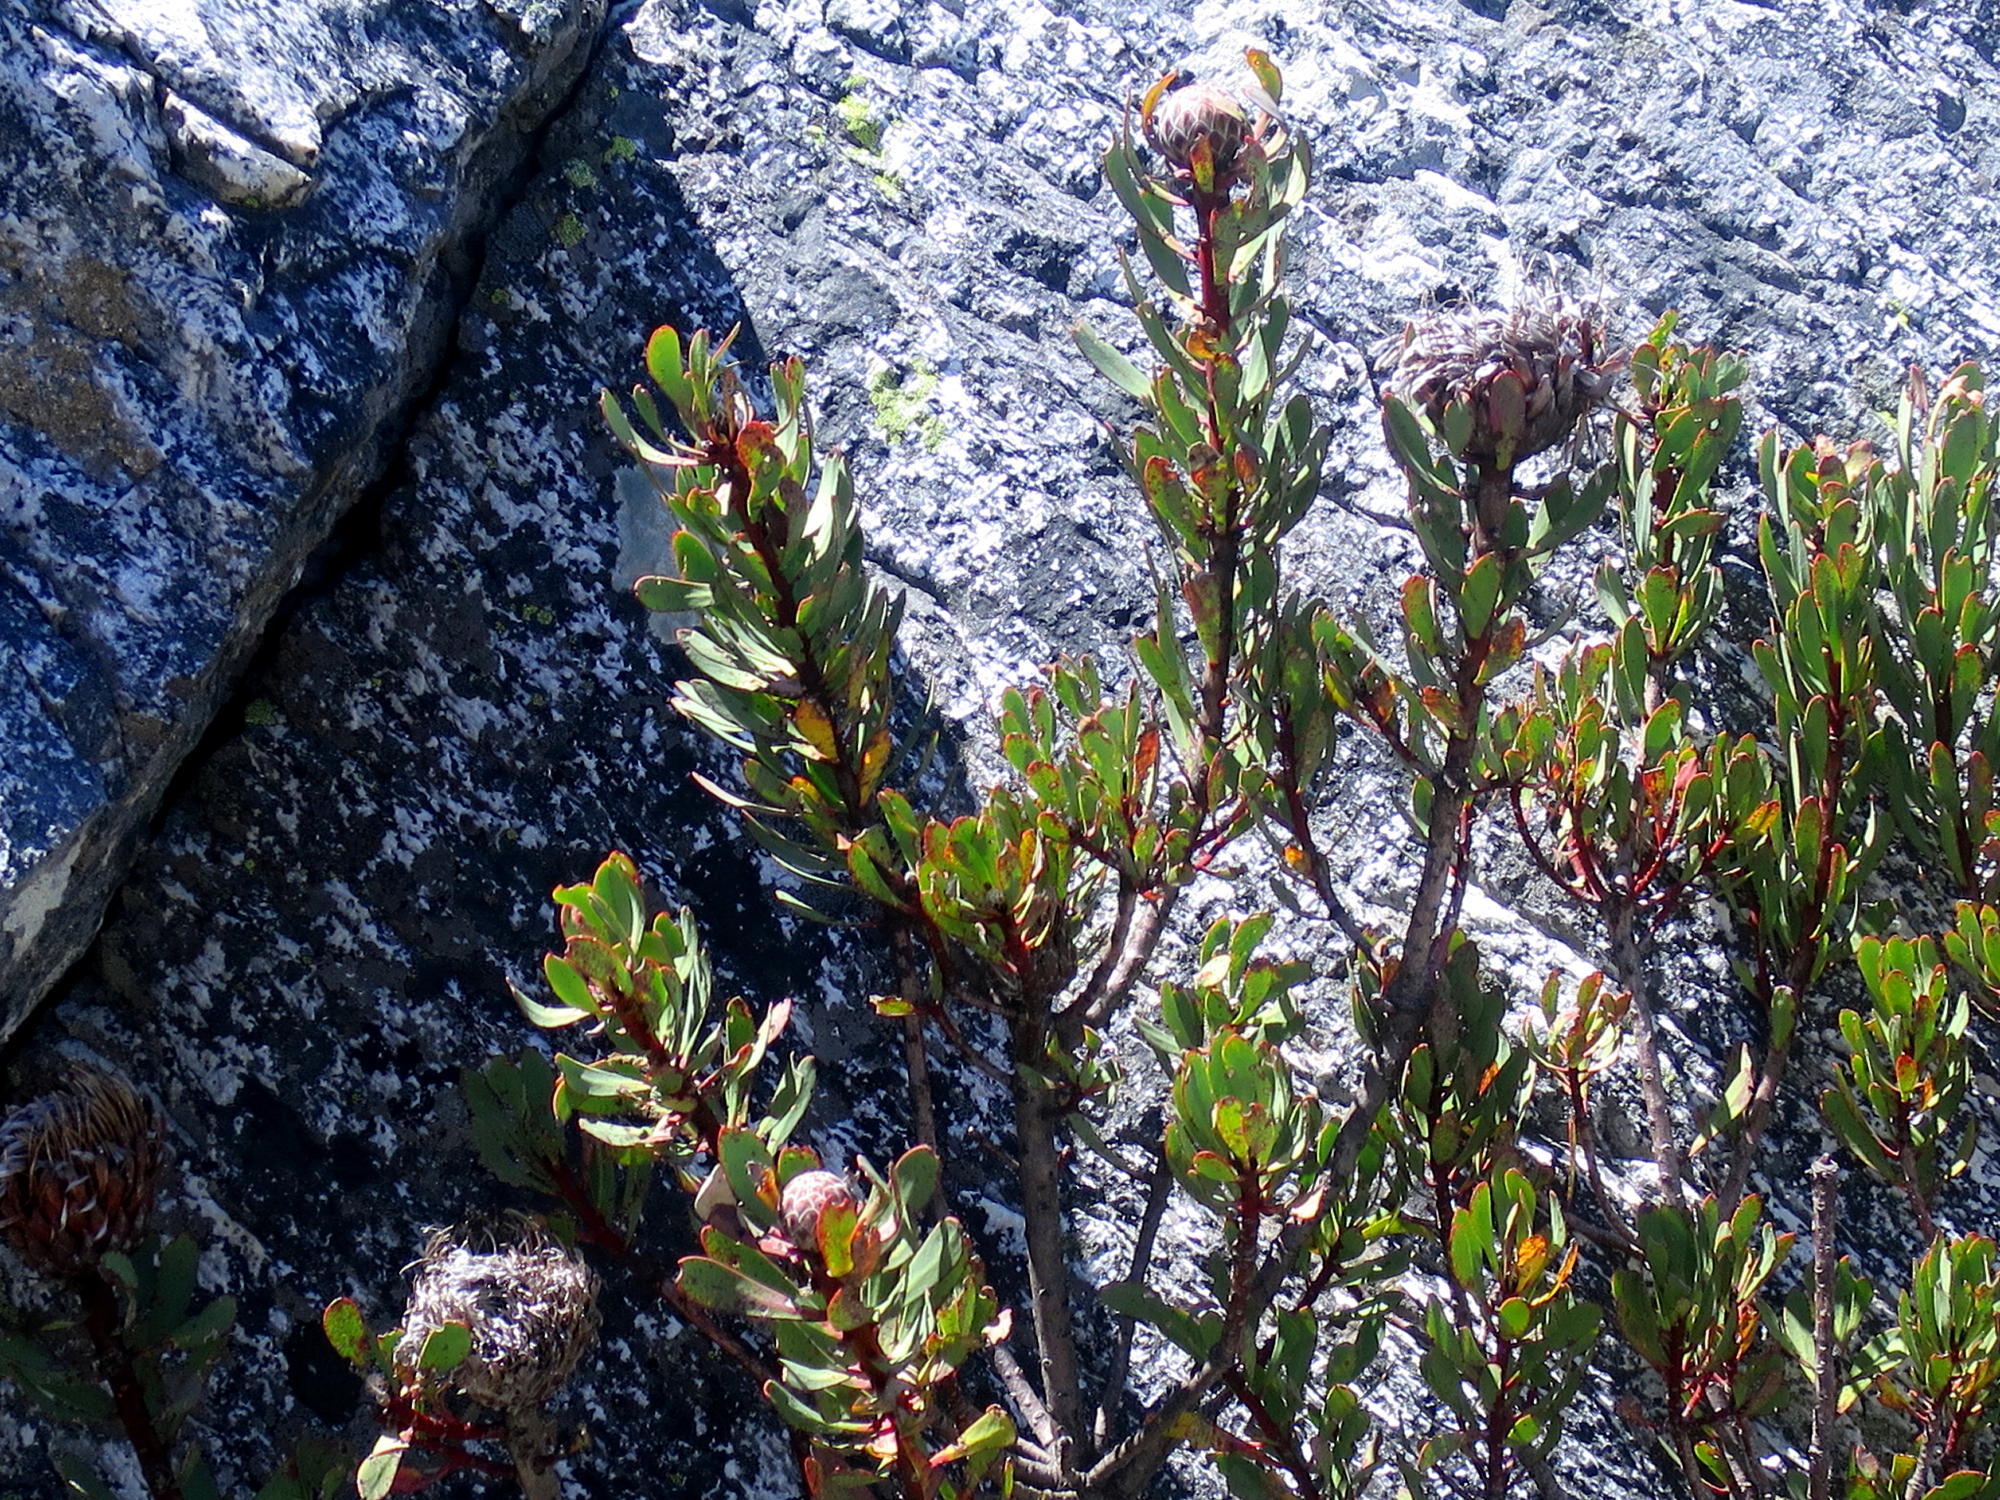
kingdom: Plantae
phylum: Tracheophyta
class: Magnoliopsida
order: Proteales
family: Proteaceae
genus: Protea
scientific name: Protea rupicola
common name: Krantz protea
